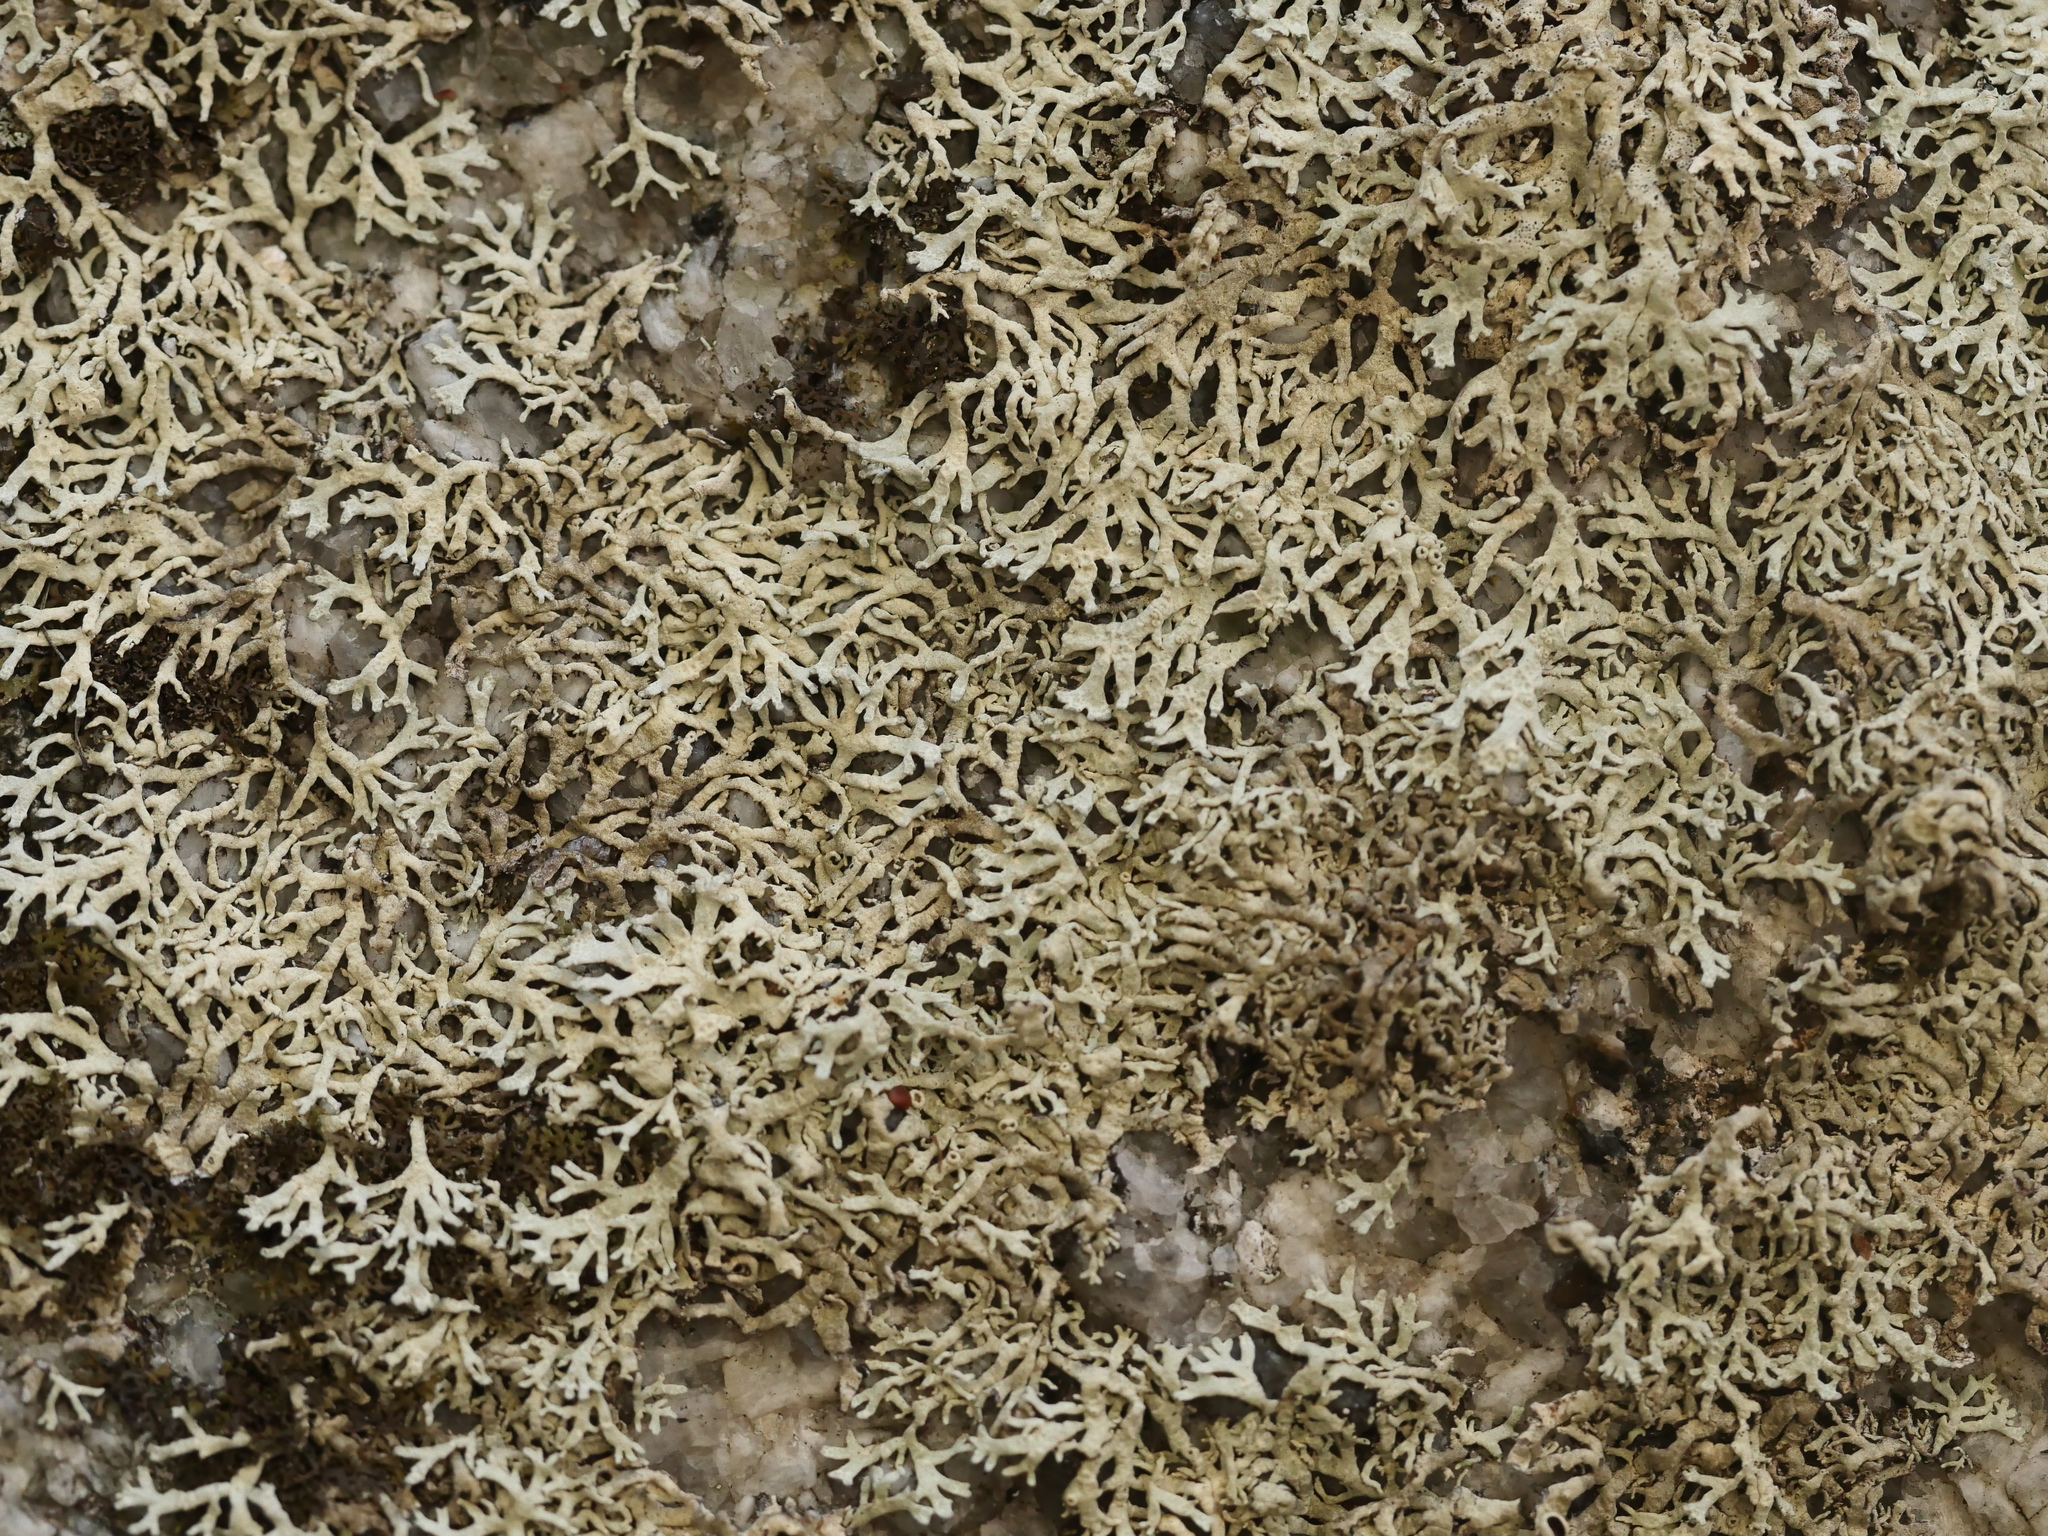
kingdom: Fungi
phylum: Ascomycota
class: Lecanoromycetes
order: Caliciales
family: Physciaceae
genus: Kurokawia
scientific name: Kurokawia palmulata
